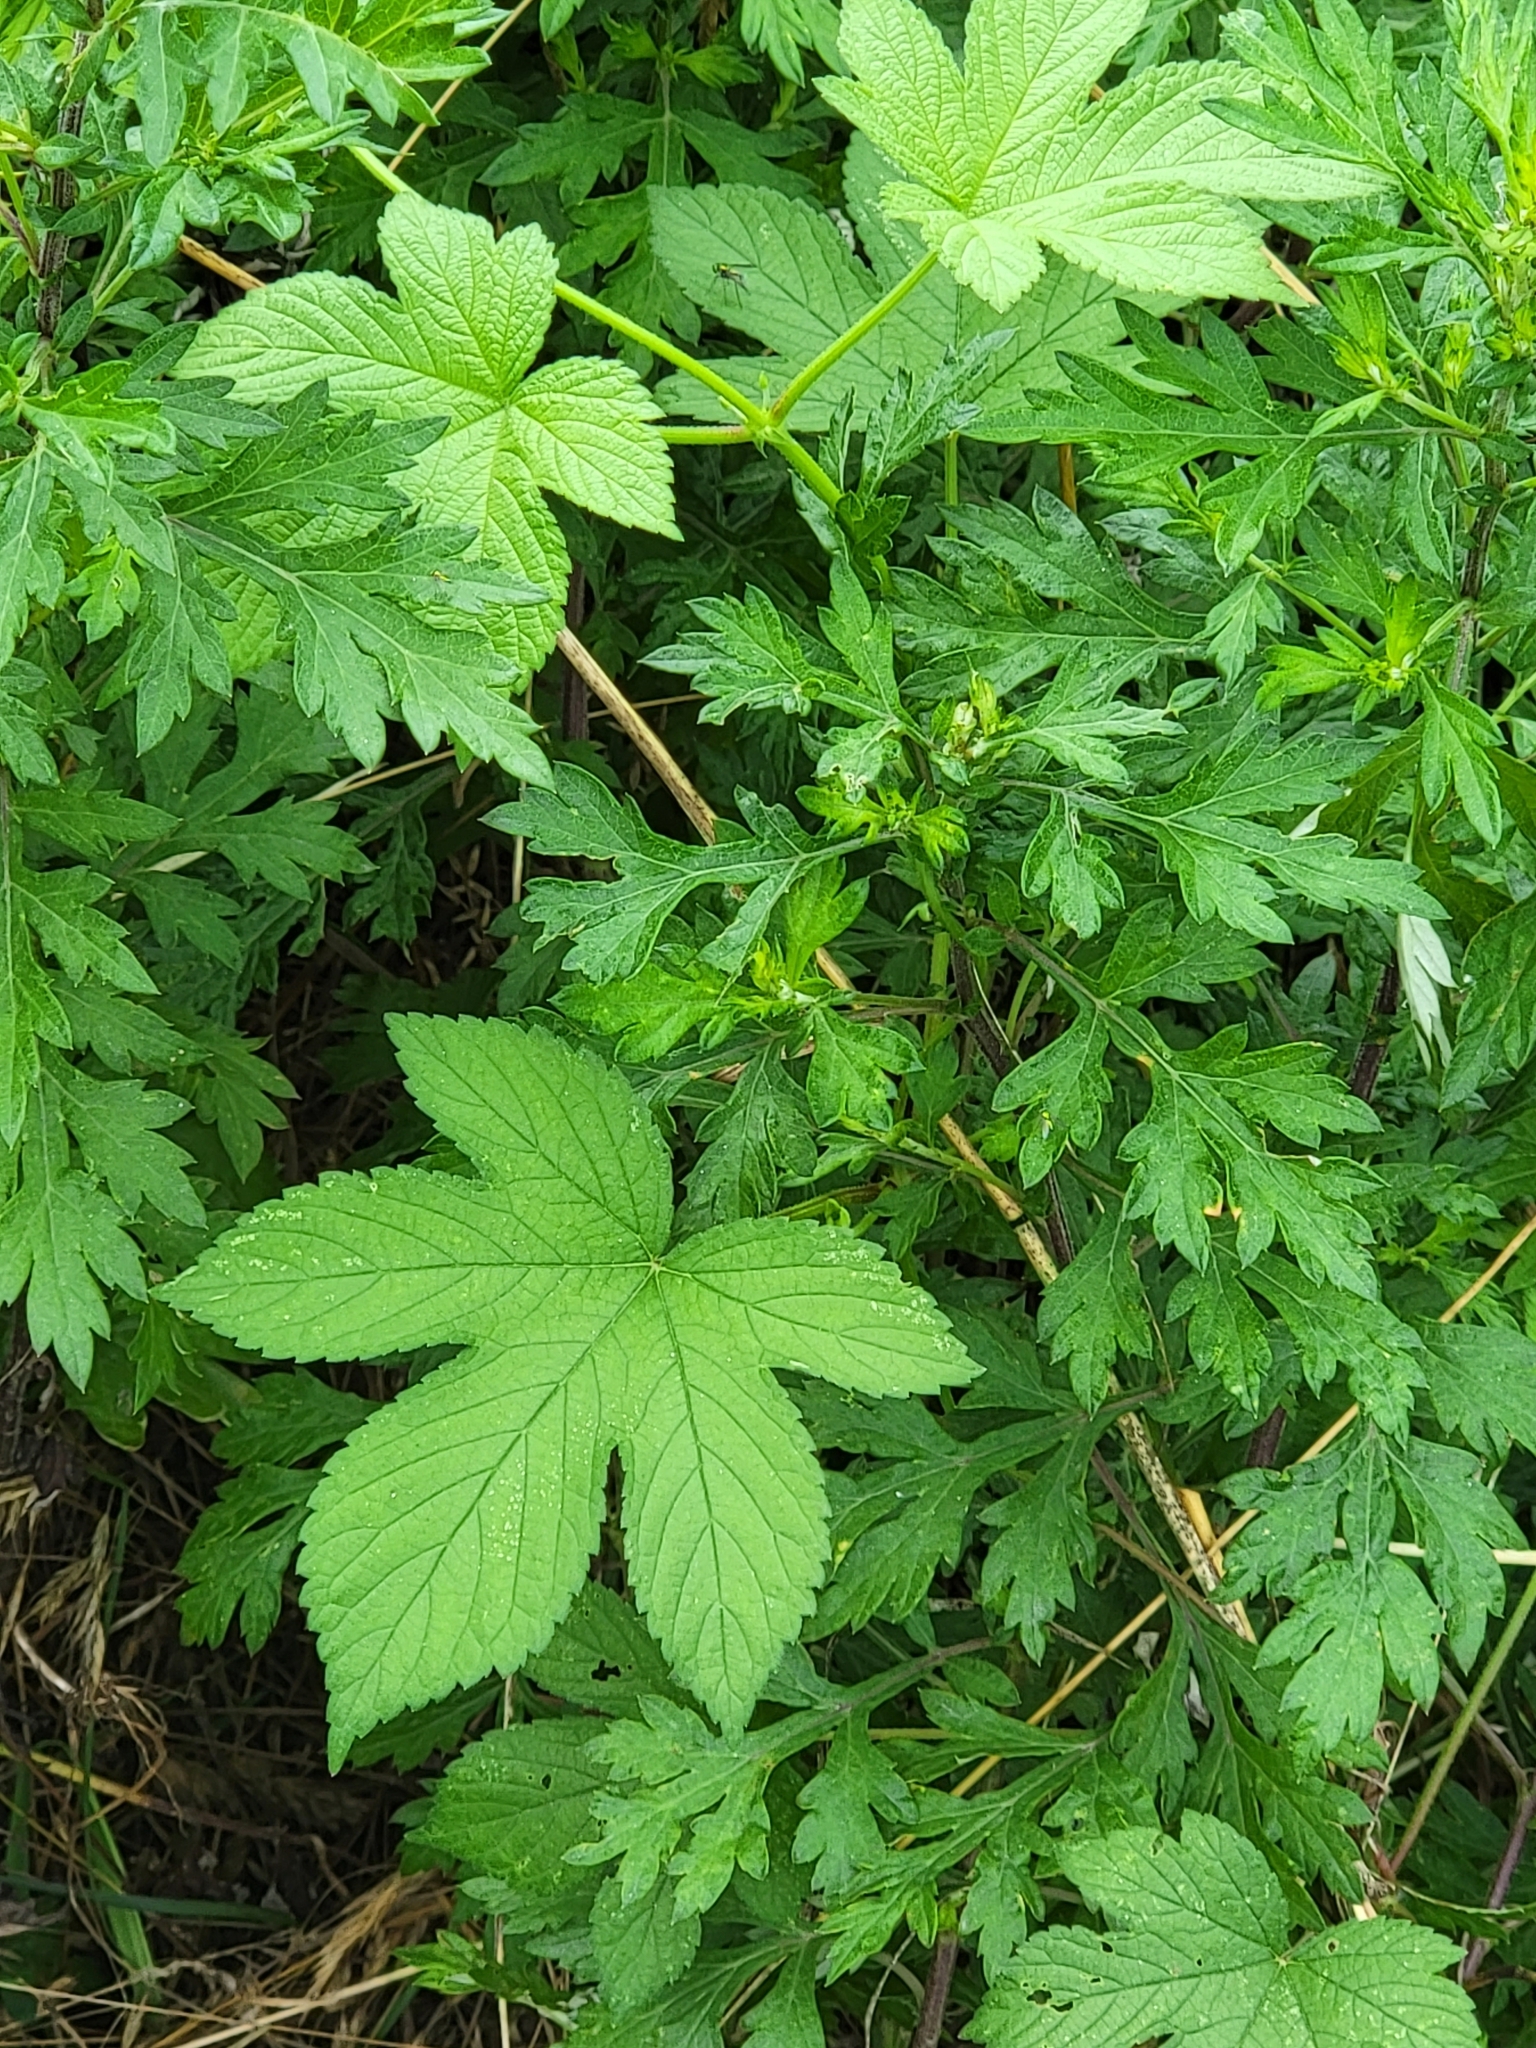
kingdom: Plantae
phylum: Tracheophyta
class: Magnoliopsida
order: Rosales
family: Cannabaceae
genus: Humulus
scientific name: Humulus scandens
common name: Japanese hop
